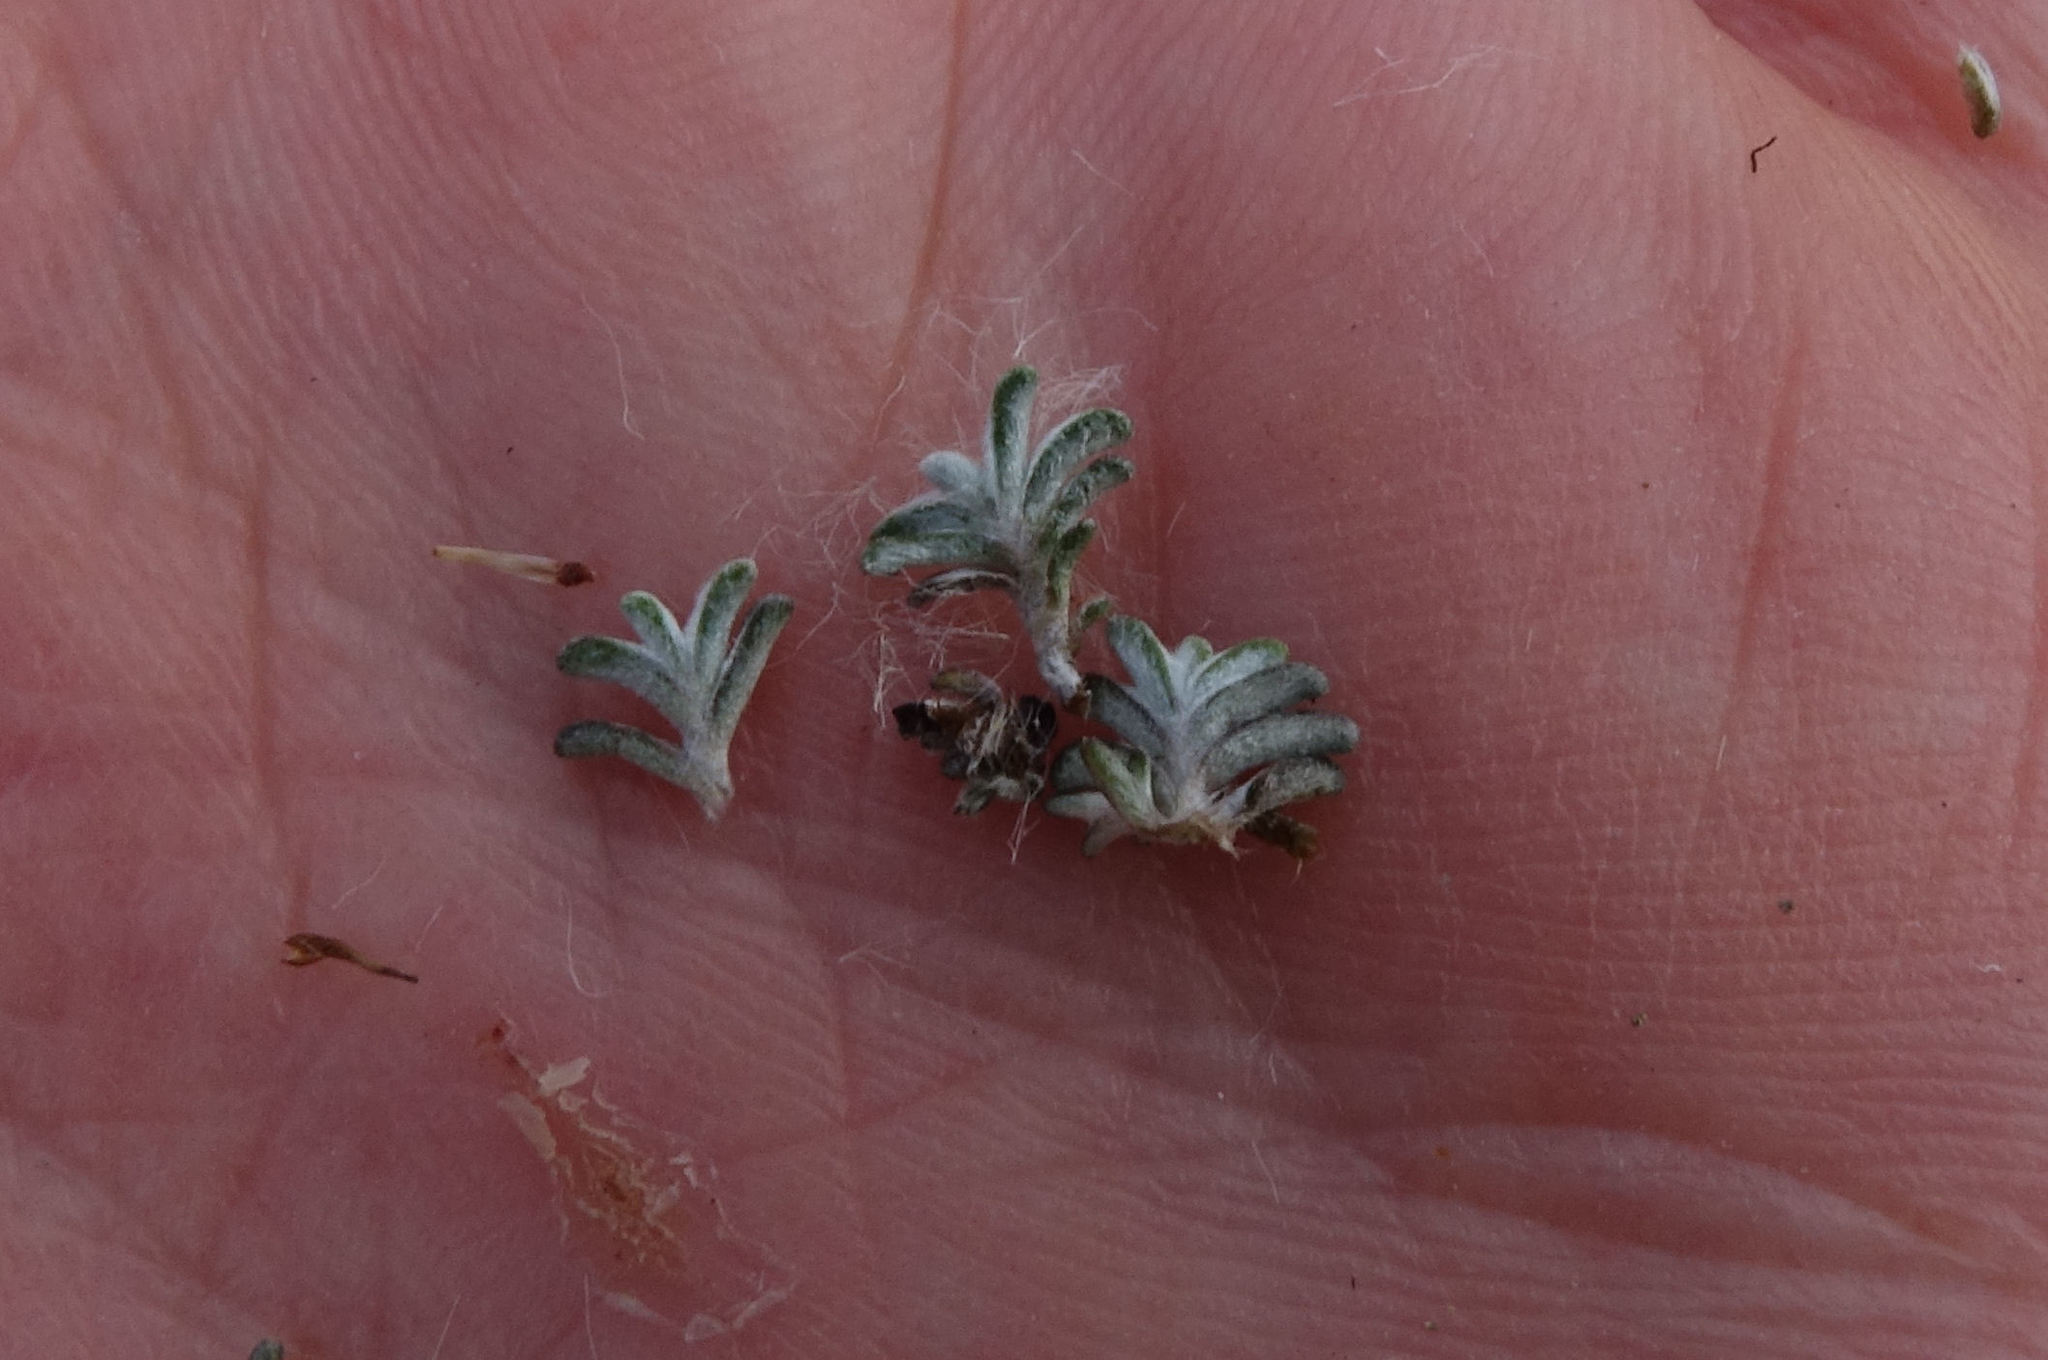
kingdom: Plantae
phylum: Tracheophyta
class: Magnoliopsida
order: Asterales
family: Asteraceae
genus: Raoulia
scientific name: Raoulia monroi
